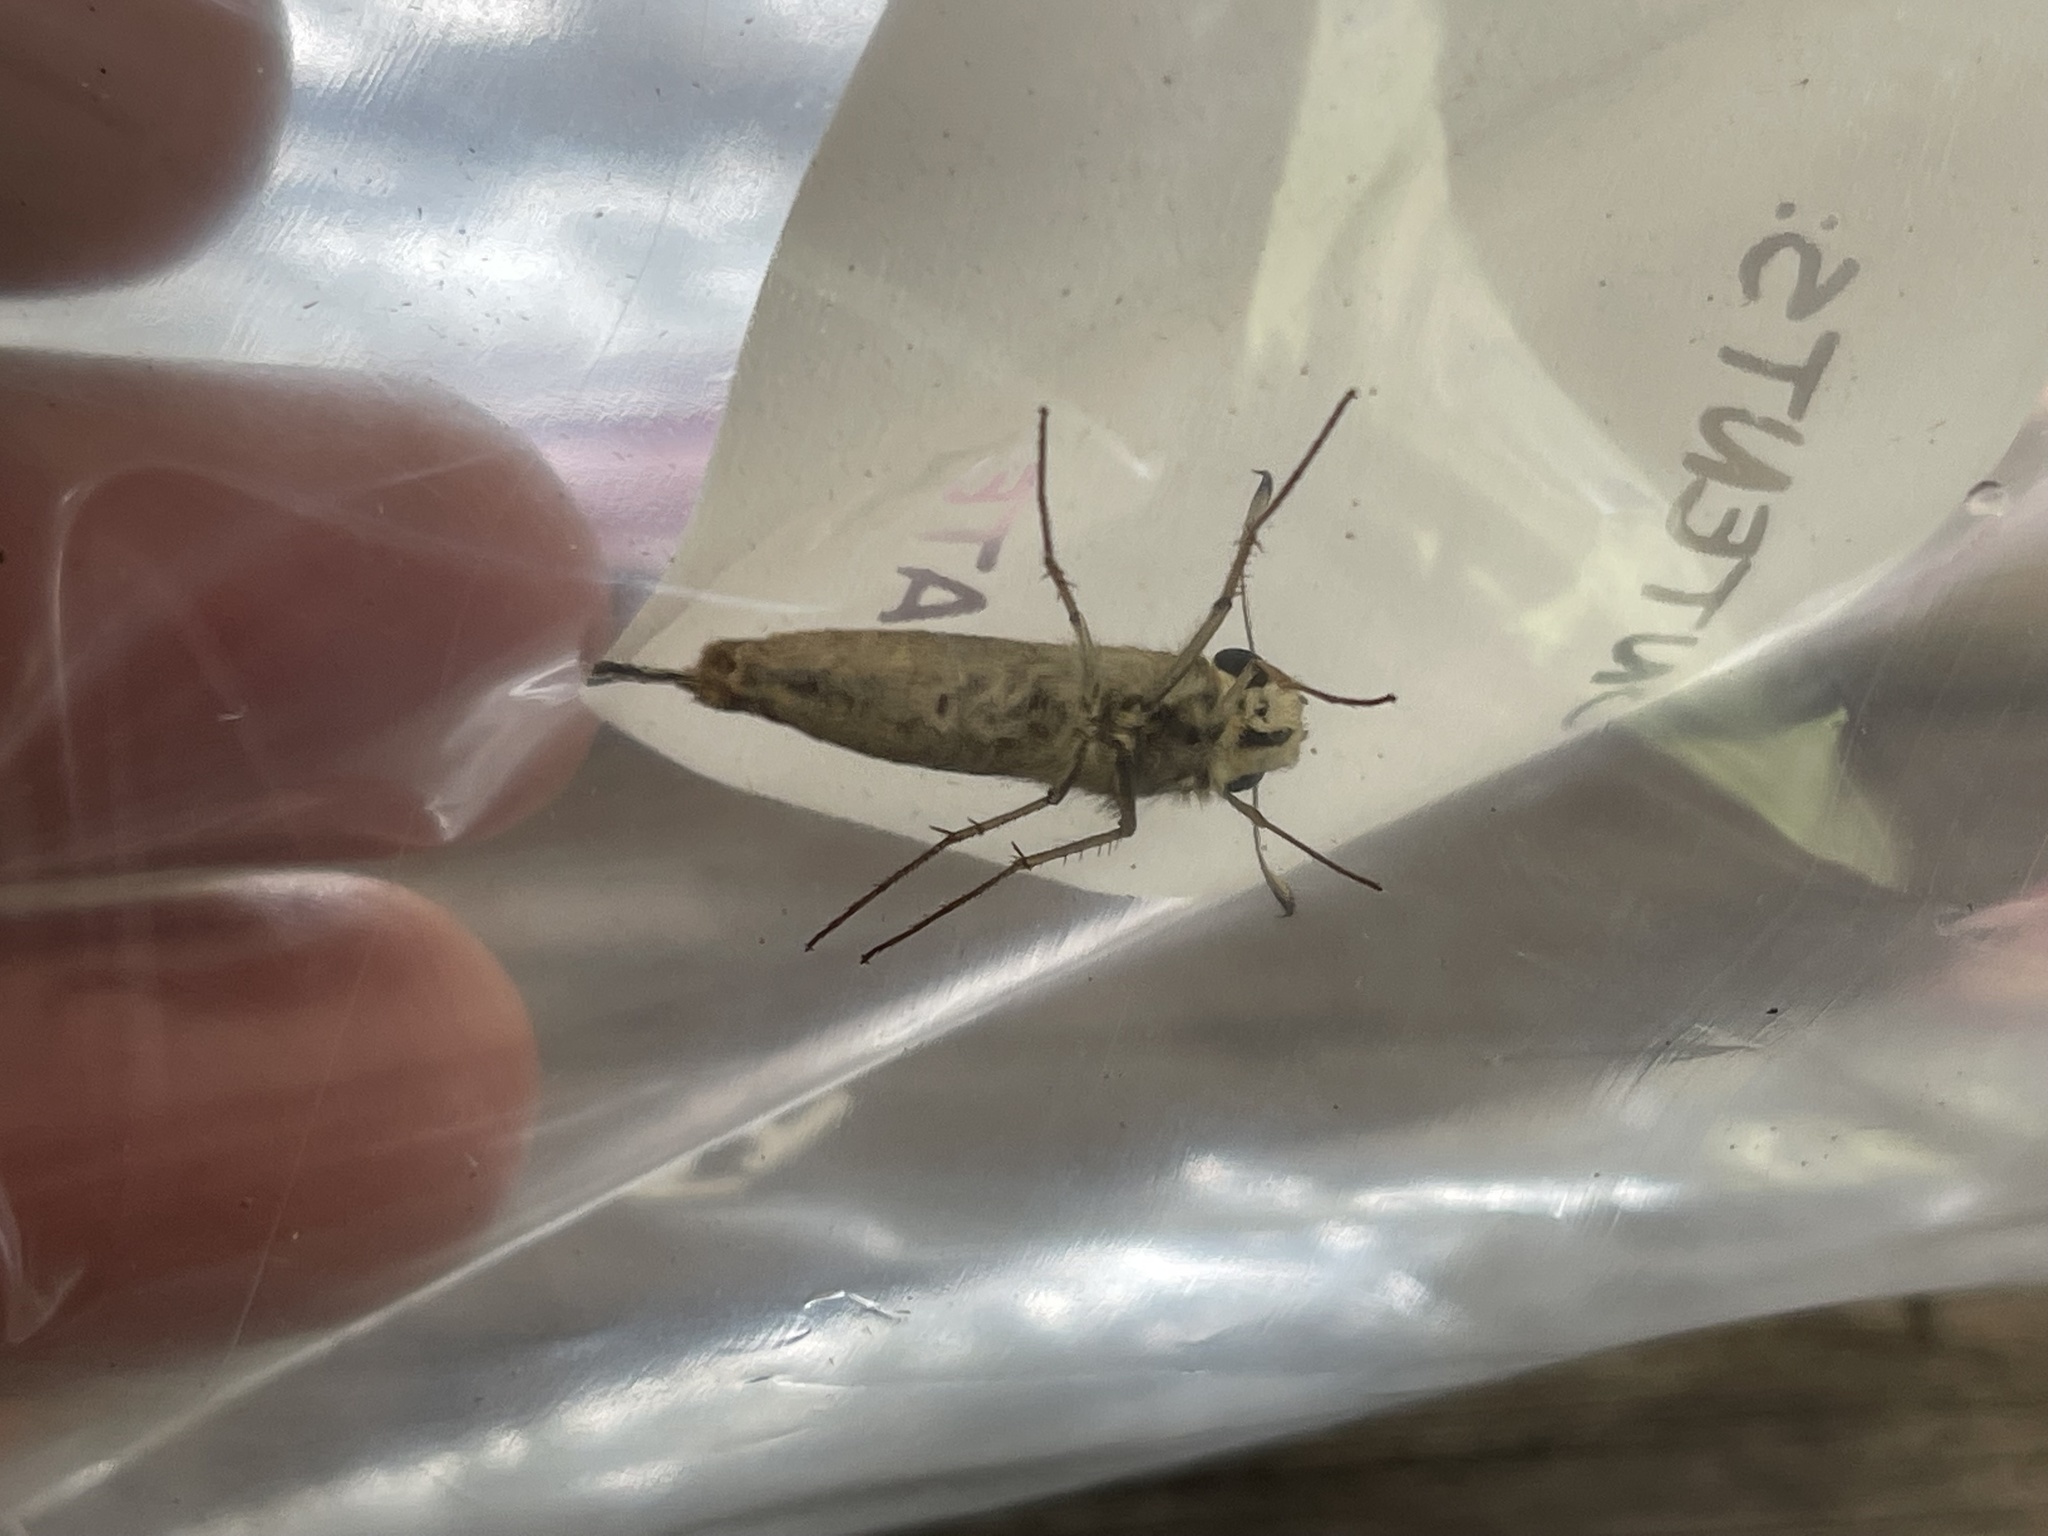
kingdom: Animalia
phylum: Arthropoda
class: Insecta
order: Lepidoptera
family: Hesperiidae
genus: Atalopedes
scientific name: Atalopedes
